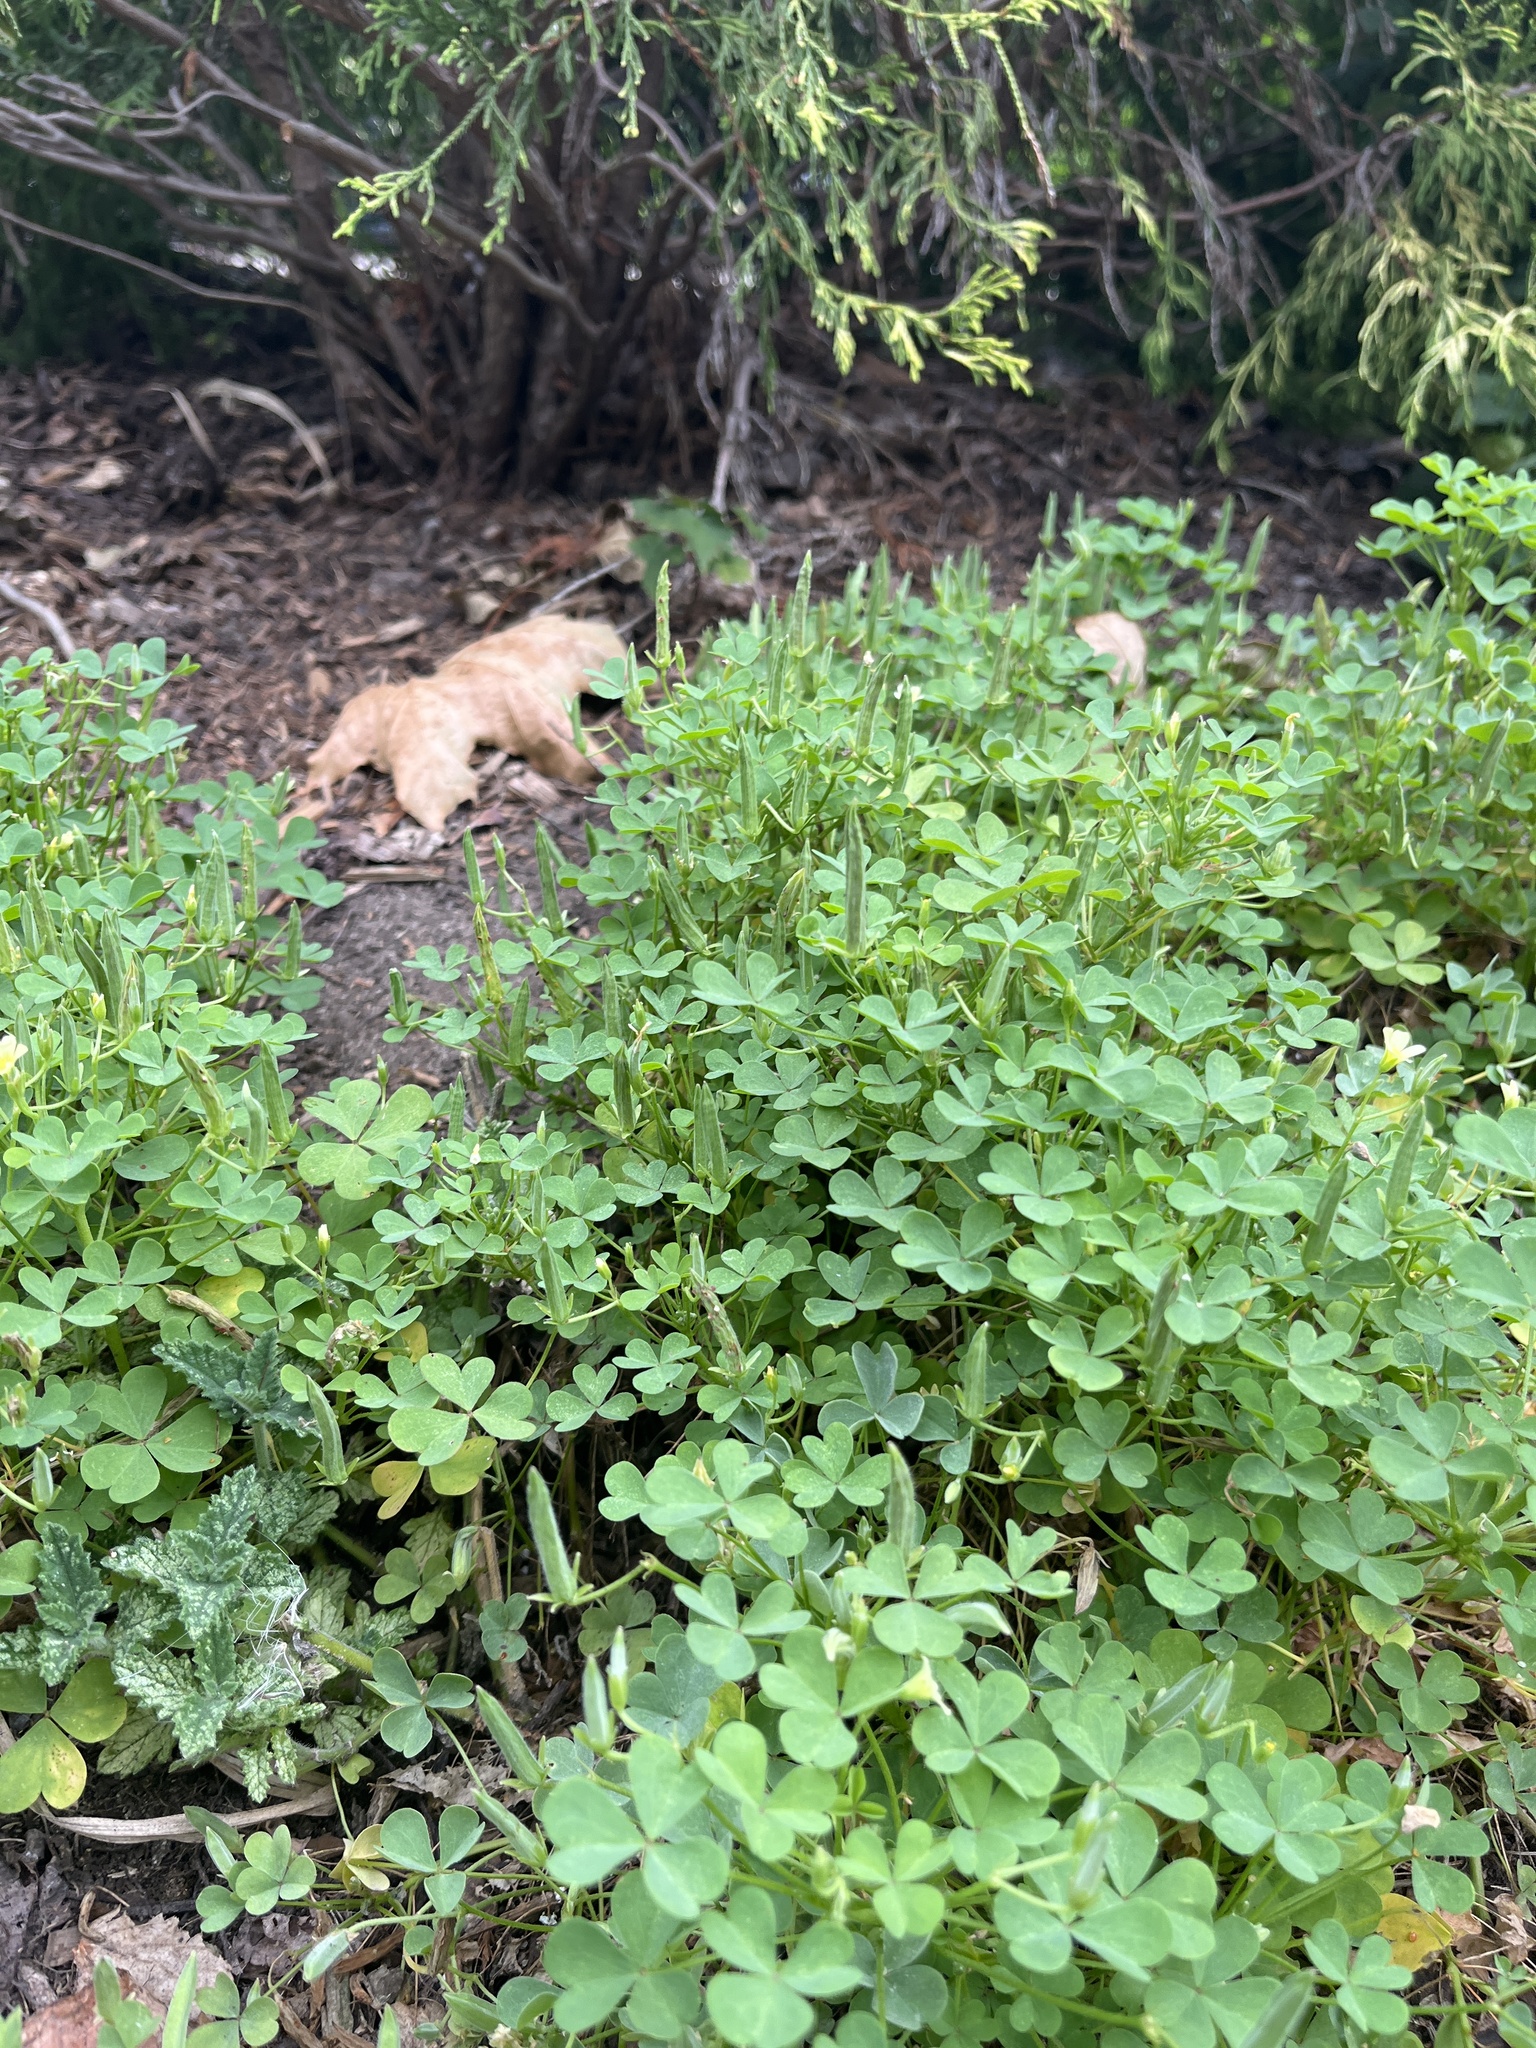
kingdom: Plantae
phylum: Tracheophyta
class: Magnoliopsida
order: Oxalidales
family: Oxalidaceae
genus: Oxalis
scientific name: Oxalis
